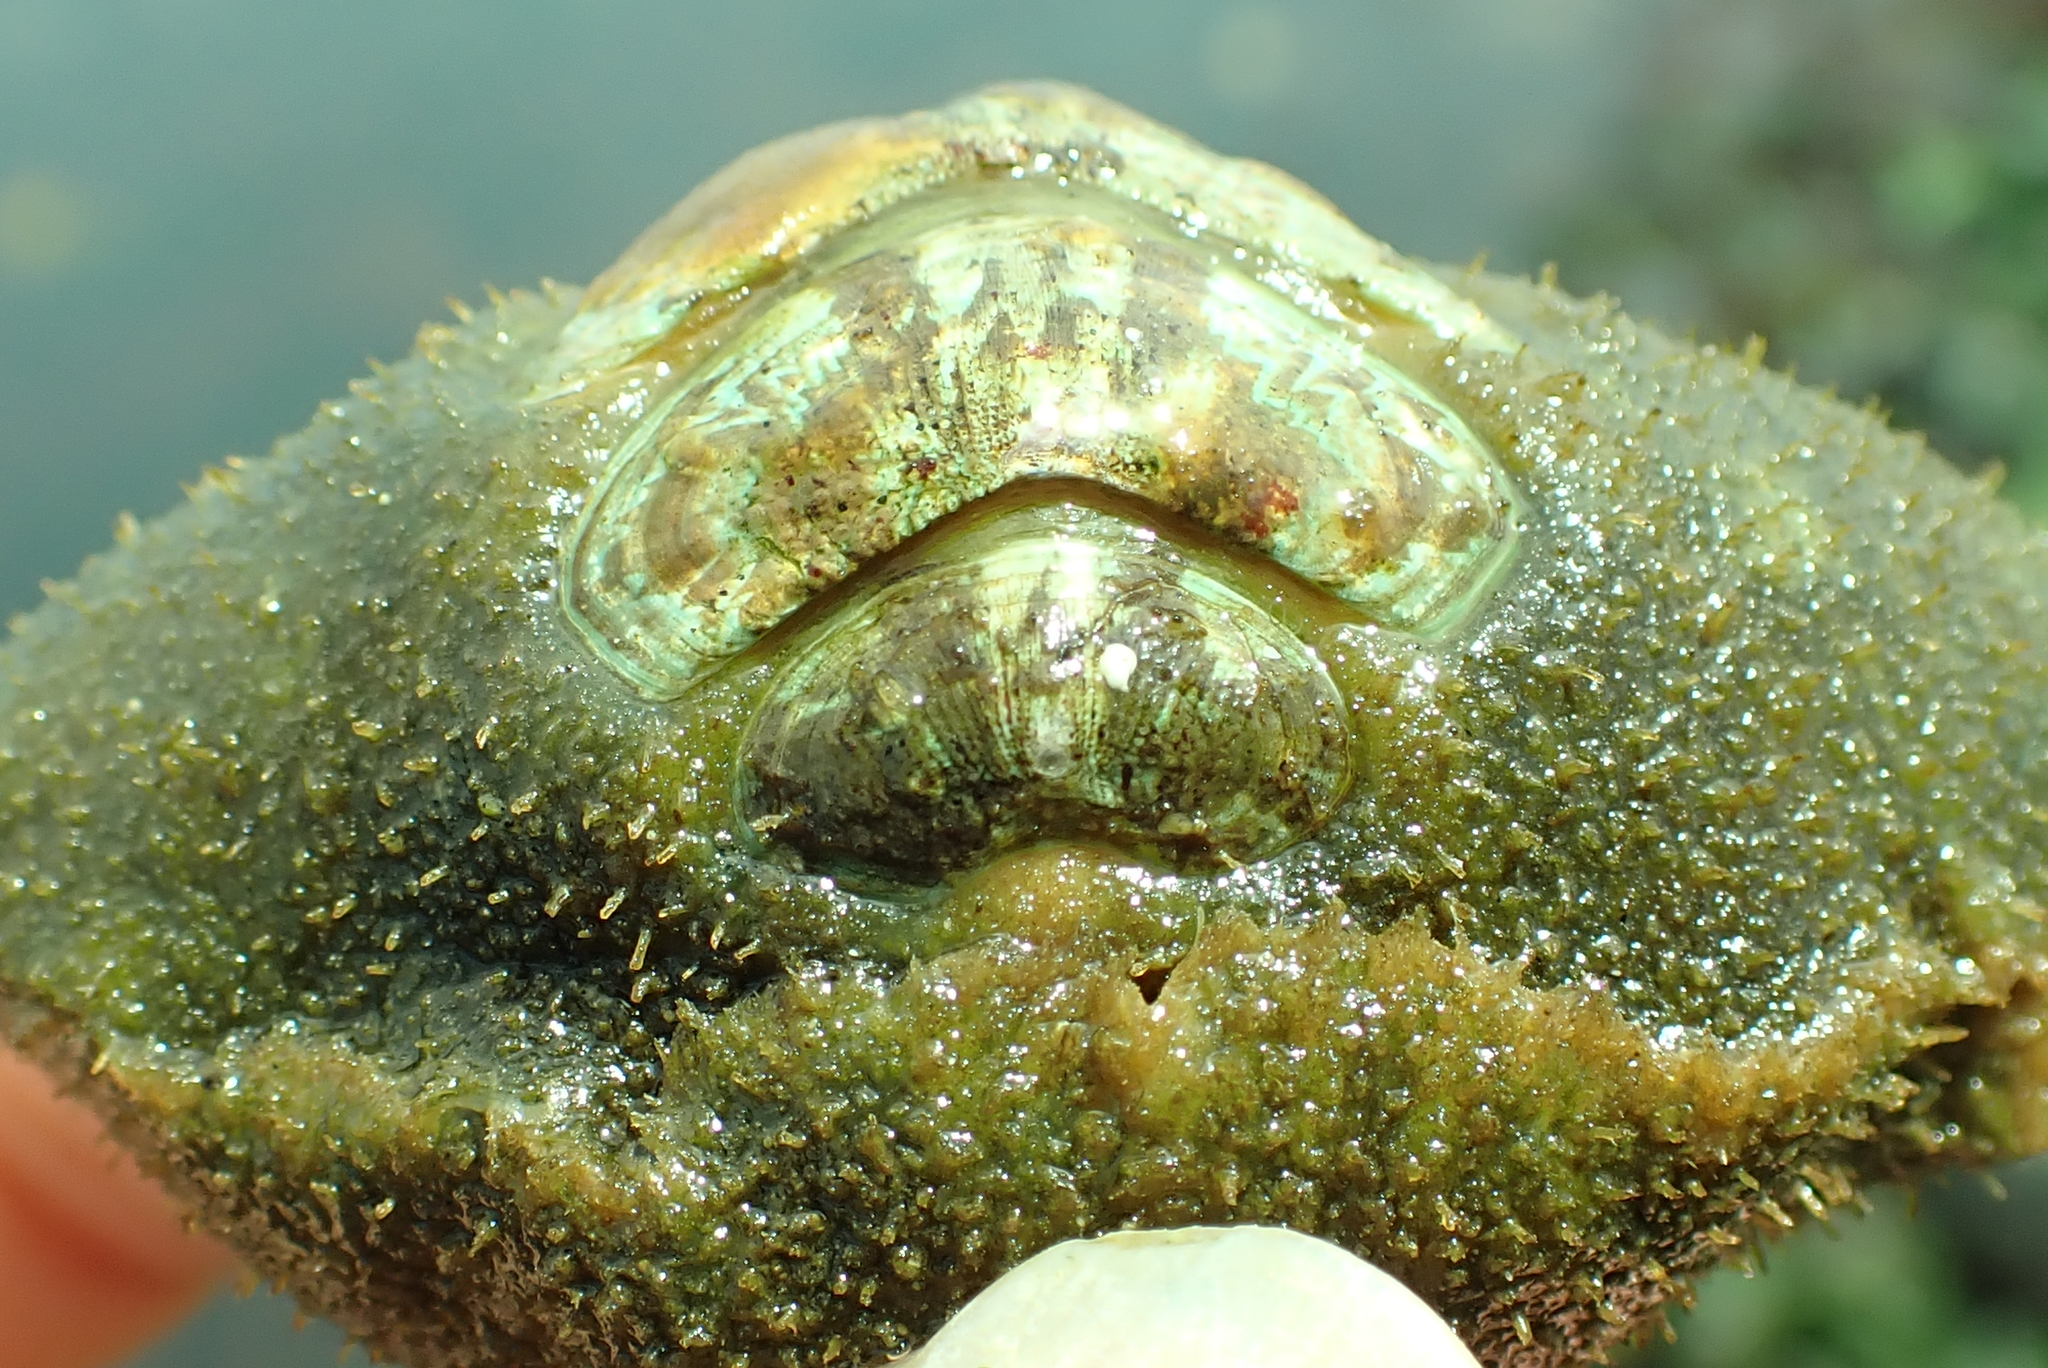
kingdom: Animalia
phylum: Mollusca
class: Polyplacophora
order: Chitonida
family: Mopaliidae
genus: Mopalia
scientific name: Mopalia swanii
